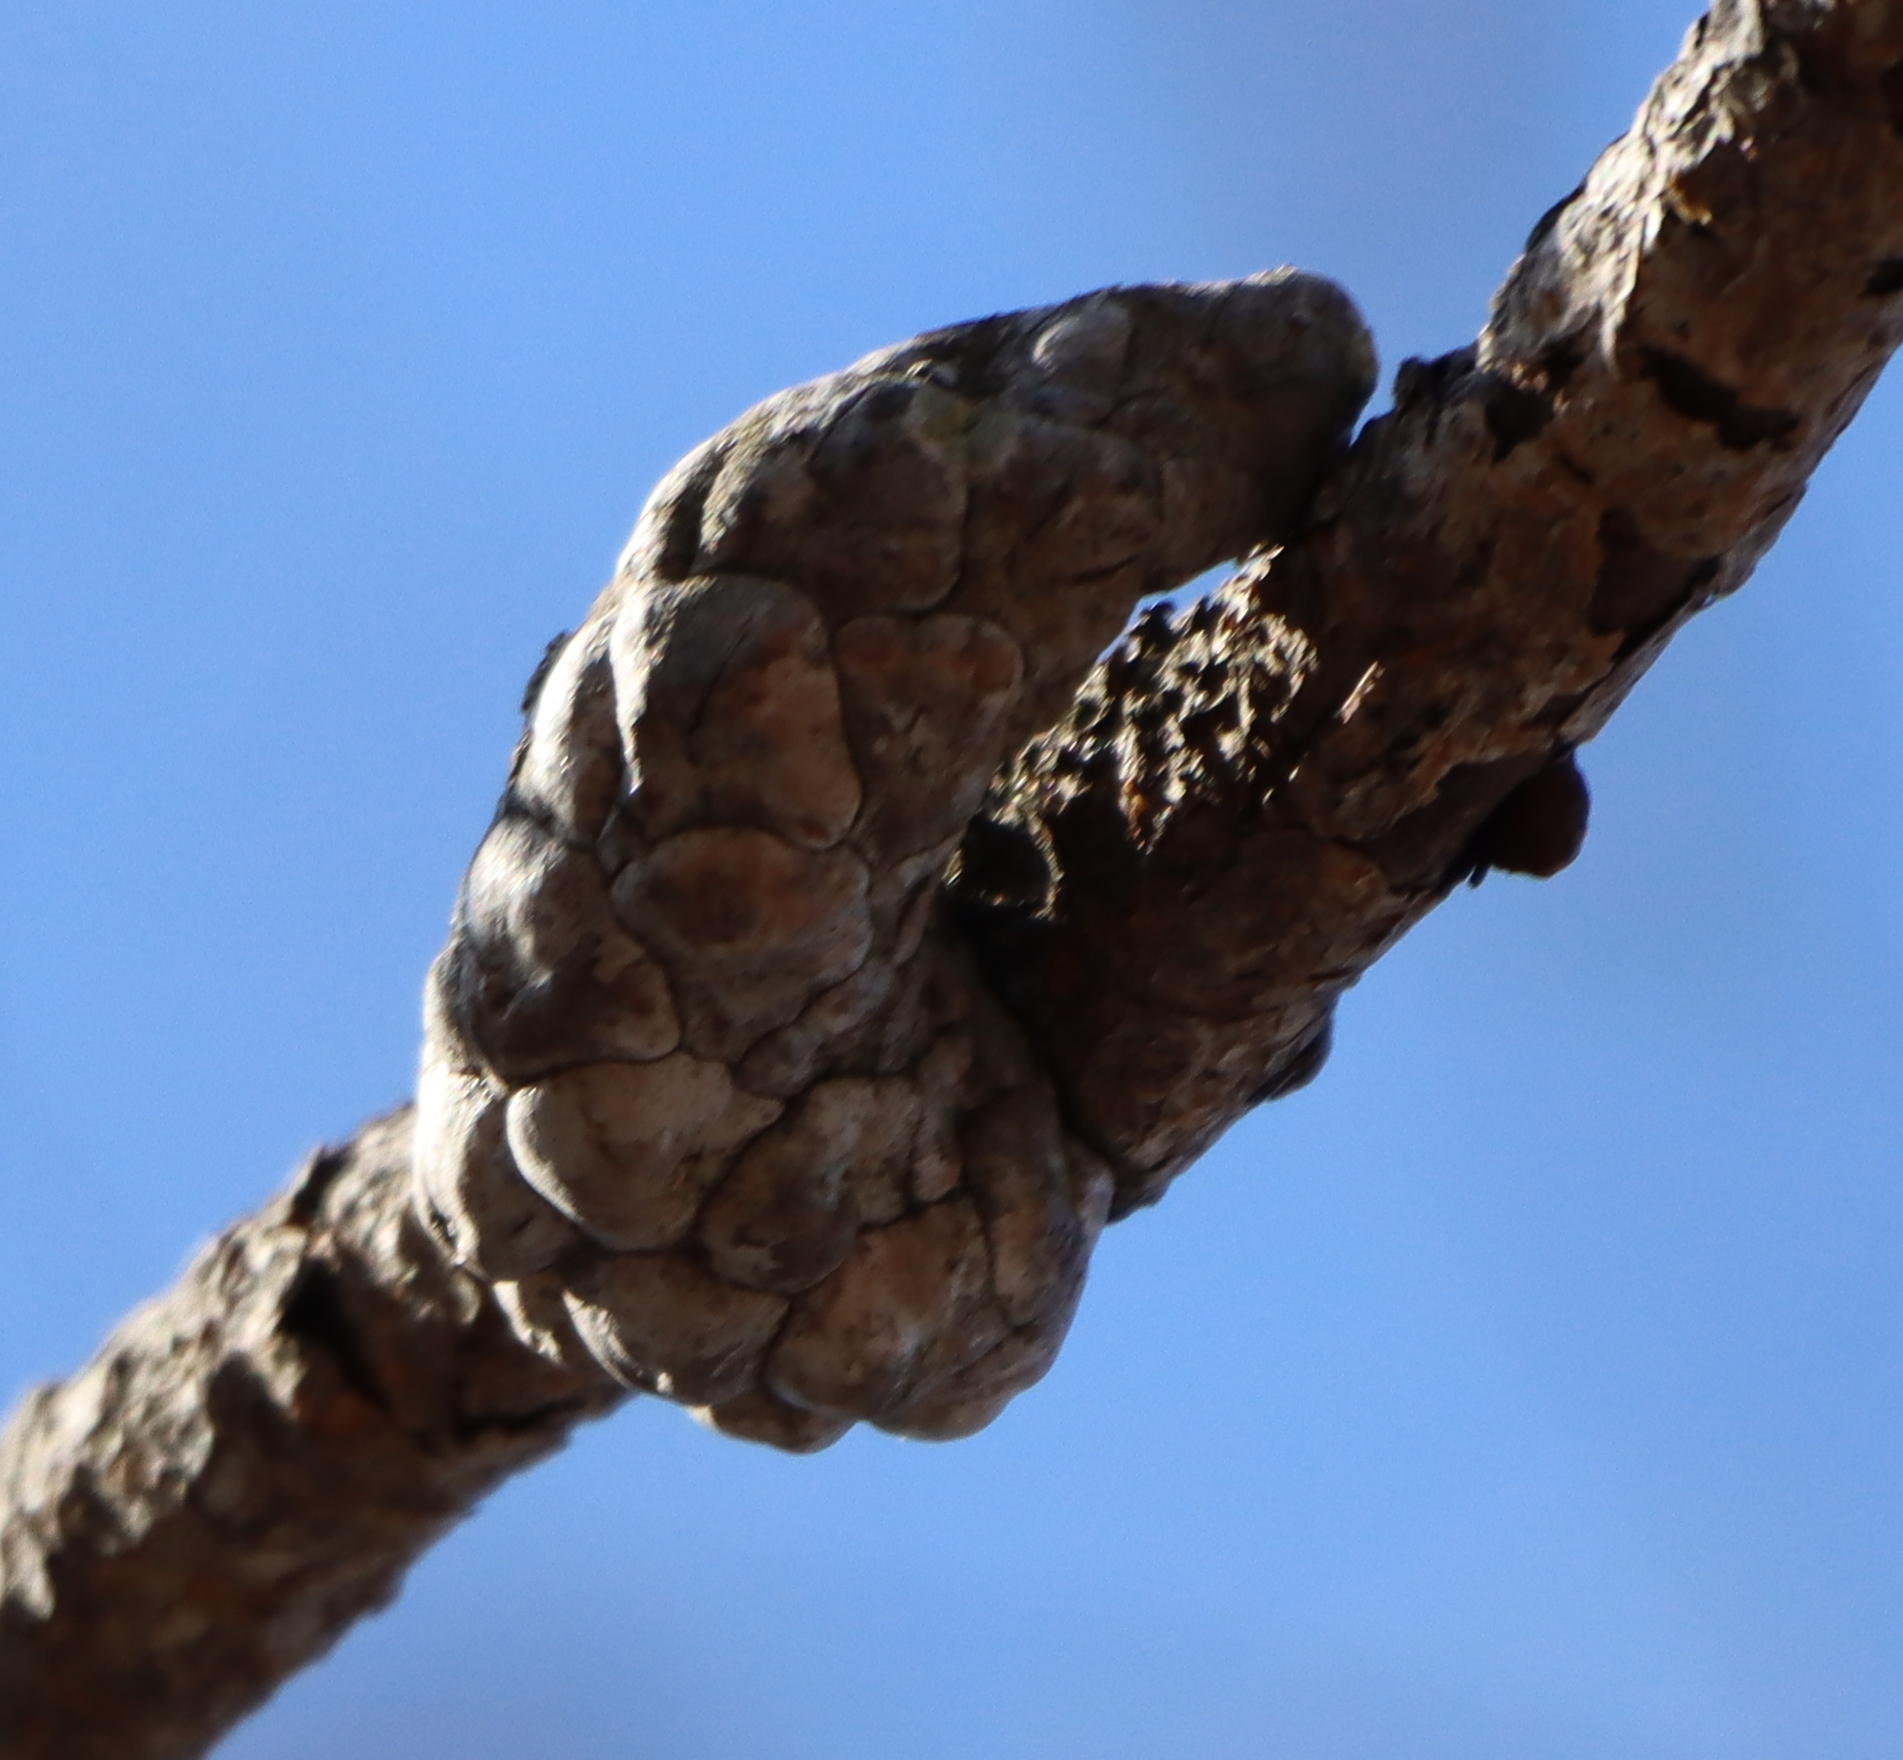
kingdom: Plantae
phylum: Tracheophyta
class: Pinopsida
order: Pinales
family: Pinaceae
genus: Pinus
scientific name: Pinus banksiana
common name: Jack pine
